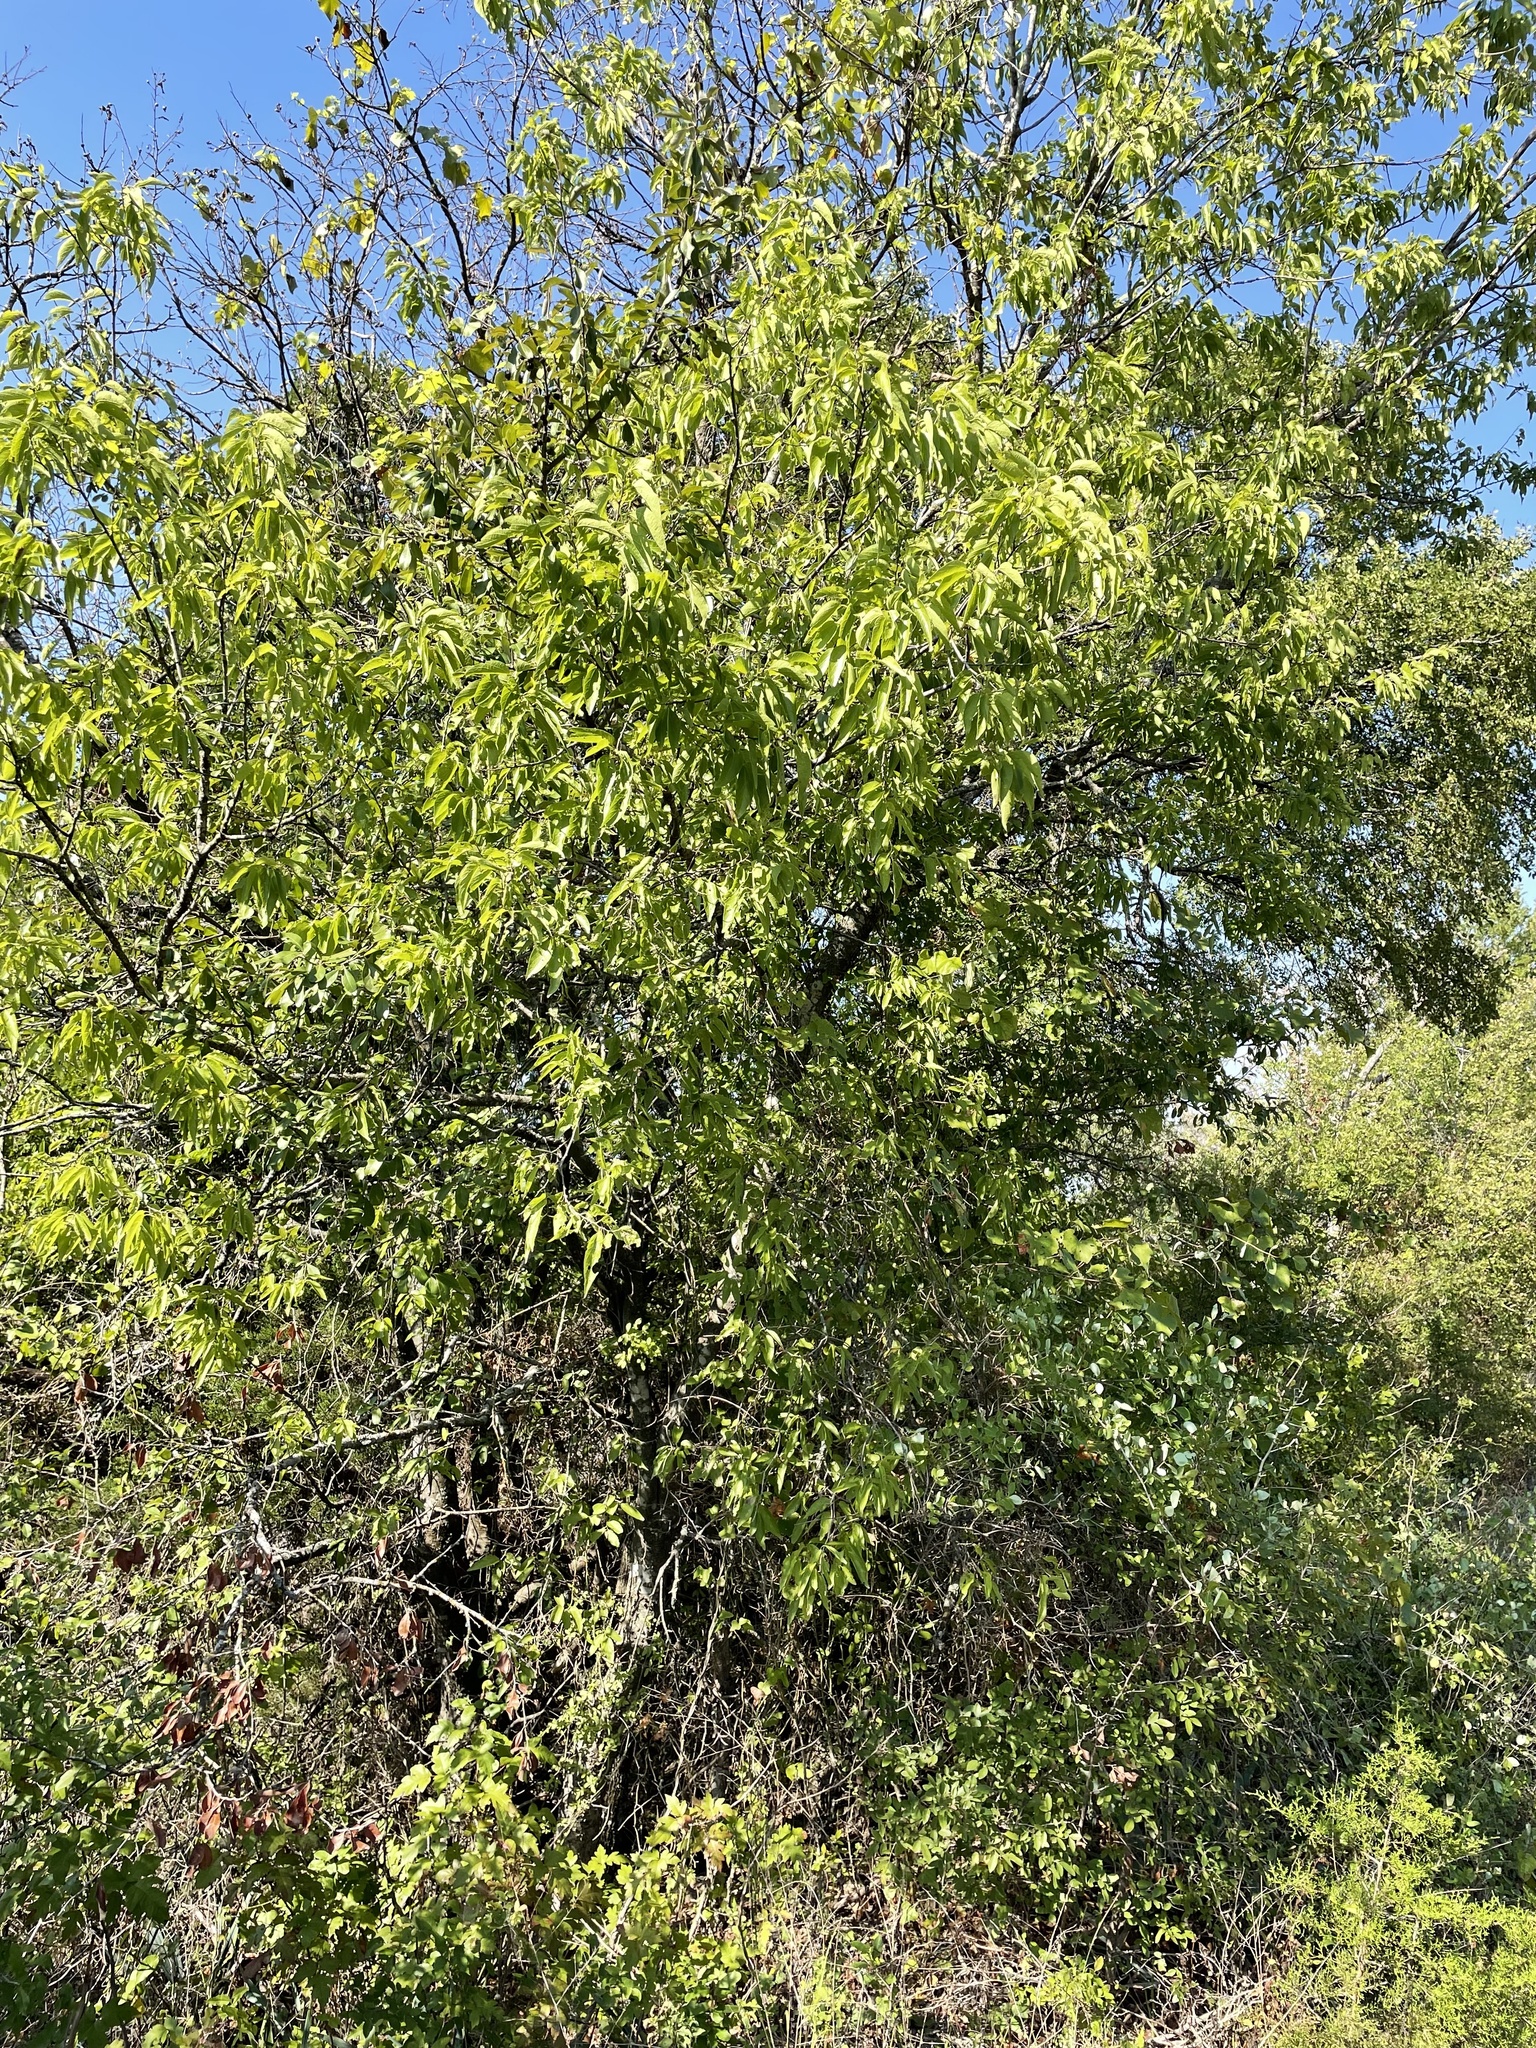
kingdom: Plantae
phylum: Tracheophyta
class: Magnoliopsida
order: Rosales
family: Cannabaceae
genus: Celtis
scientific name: Celtis laevigata
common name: Sugarberry
